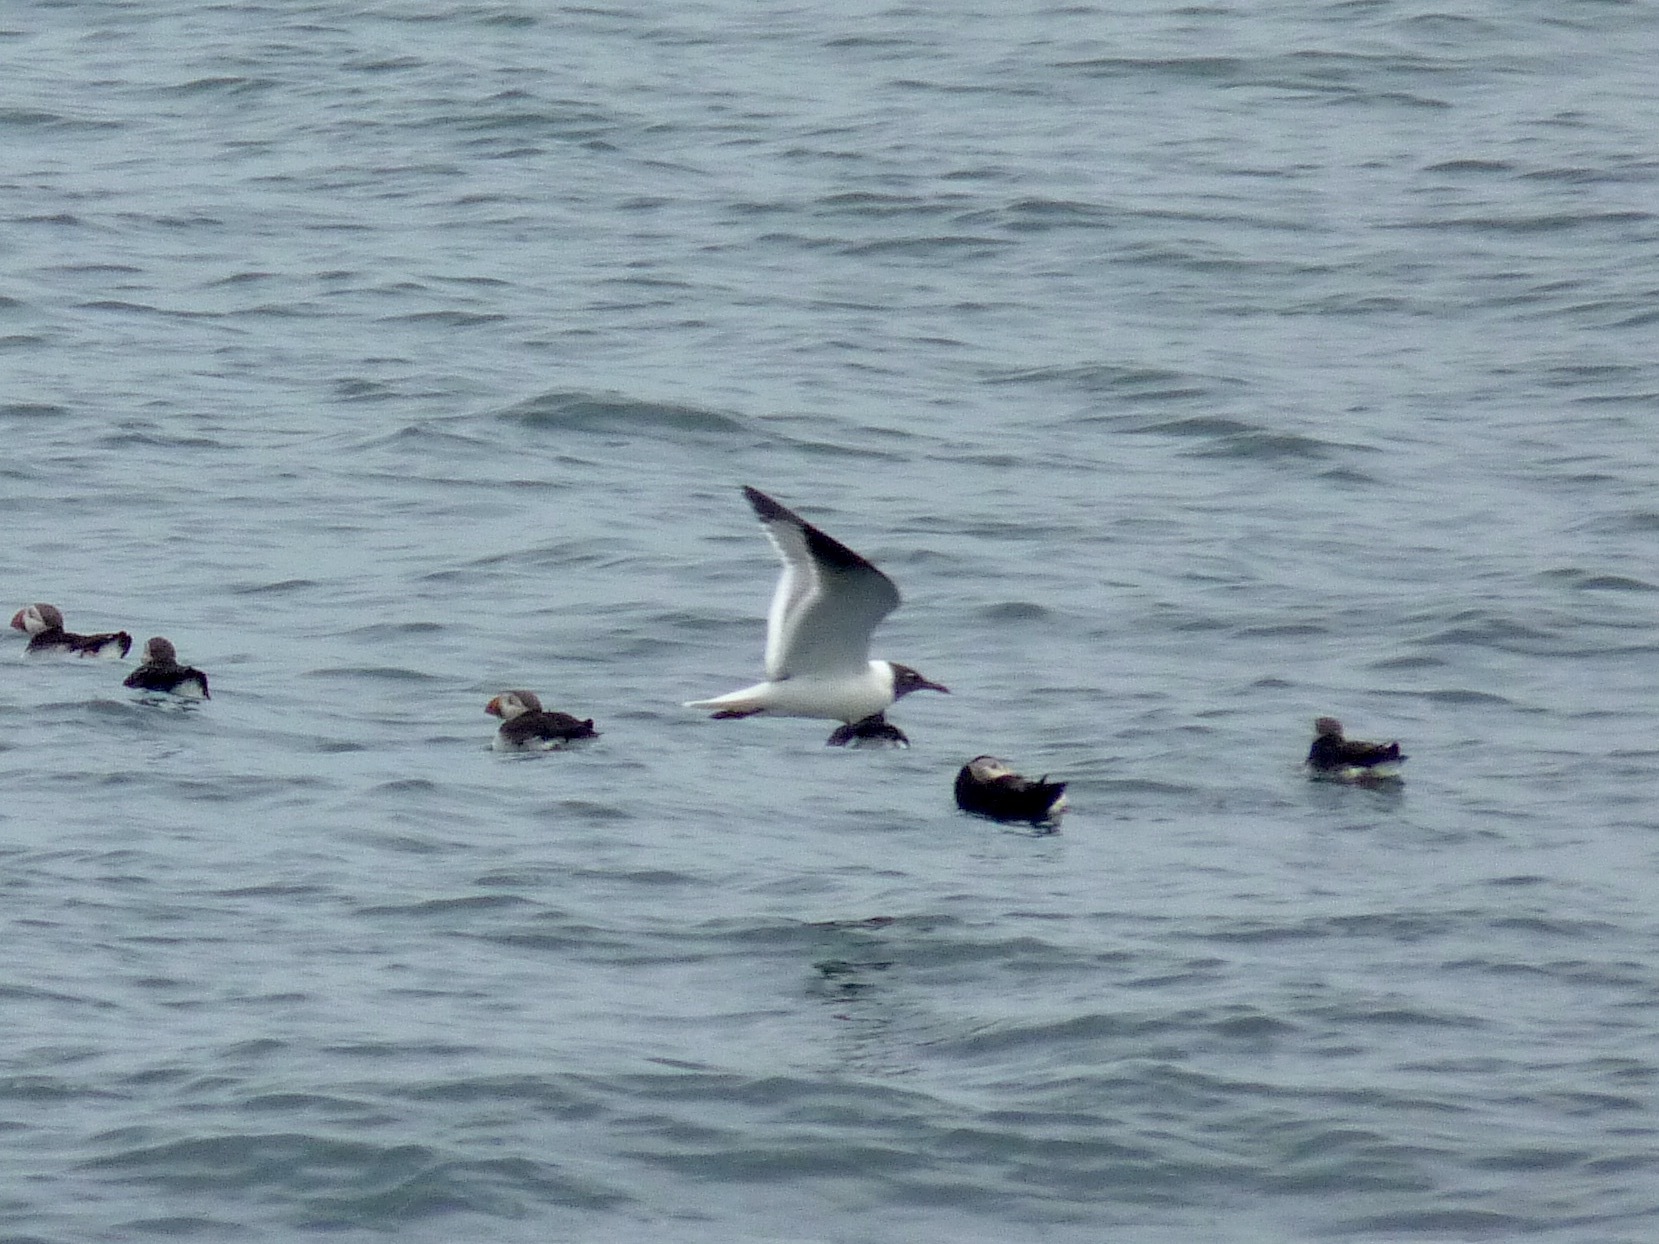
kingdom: Animalia
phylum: Chordata
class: Aves
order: Charadriiformes
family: Laridae
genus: Leucophaeus
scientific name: Leucophaeus atricilla
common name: Laughing gull
